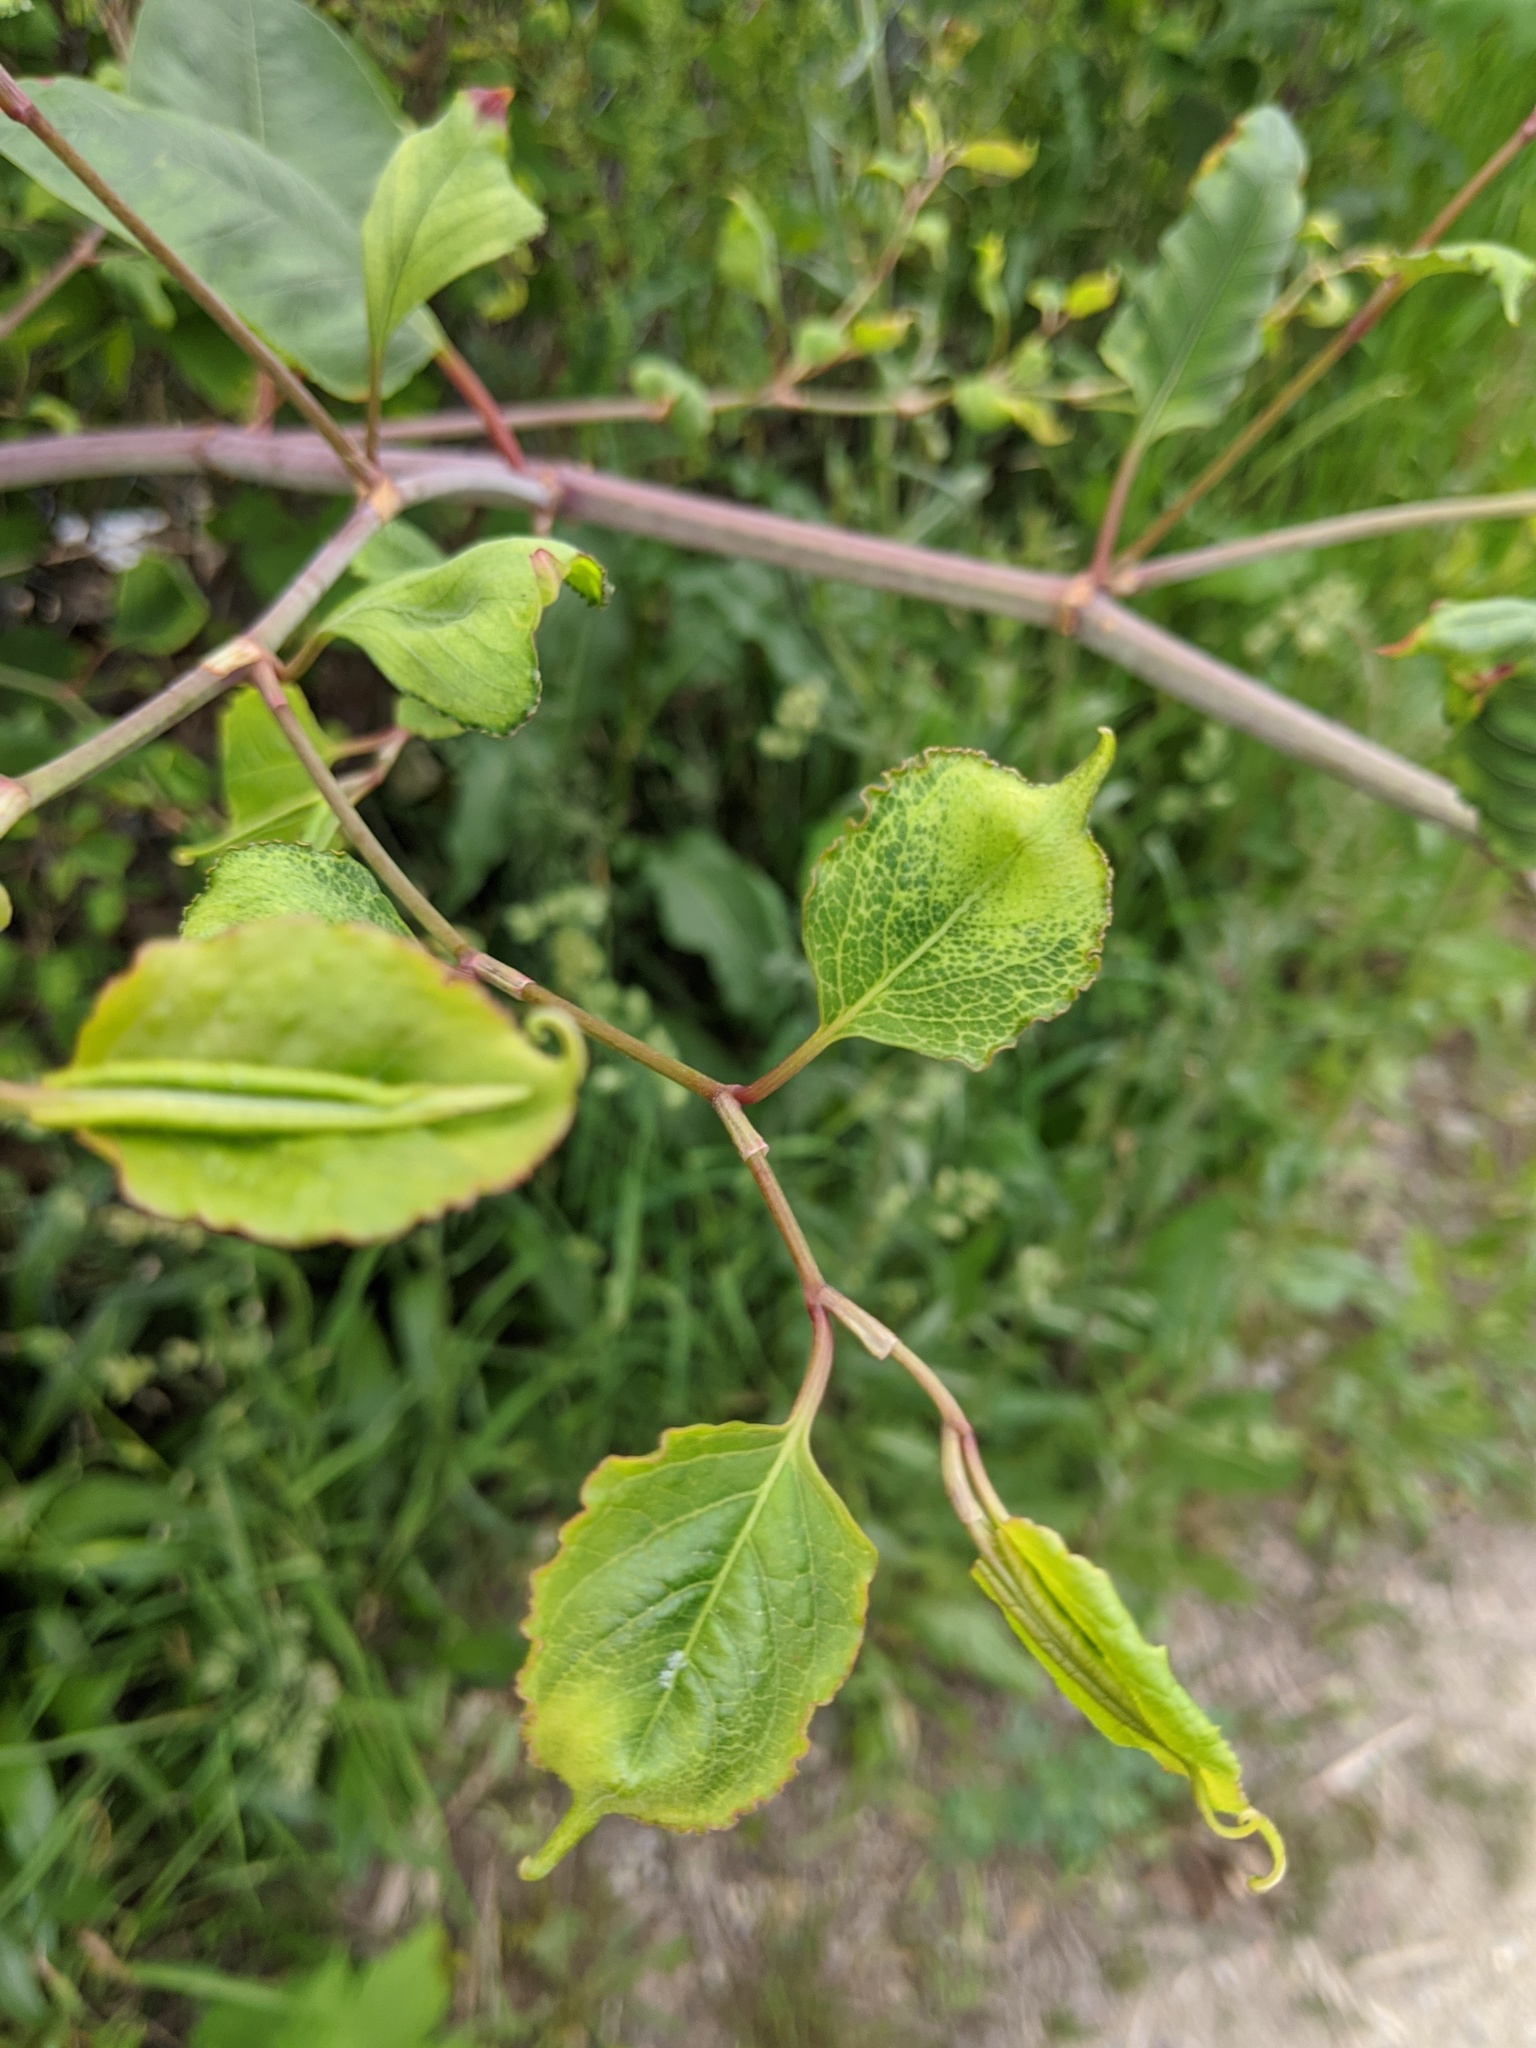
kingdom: Plantae
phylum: Tracheophyta
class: Magnoliopsida
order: Caryophyllales
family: Polygonaceae
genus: Reynoutria
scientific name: Reynoutria japonica
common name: Japanese knotweed
